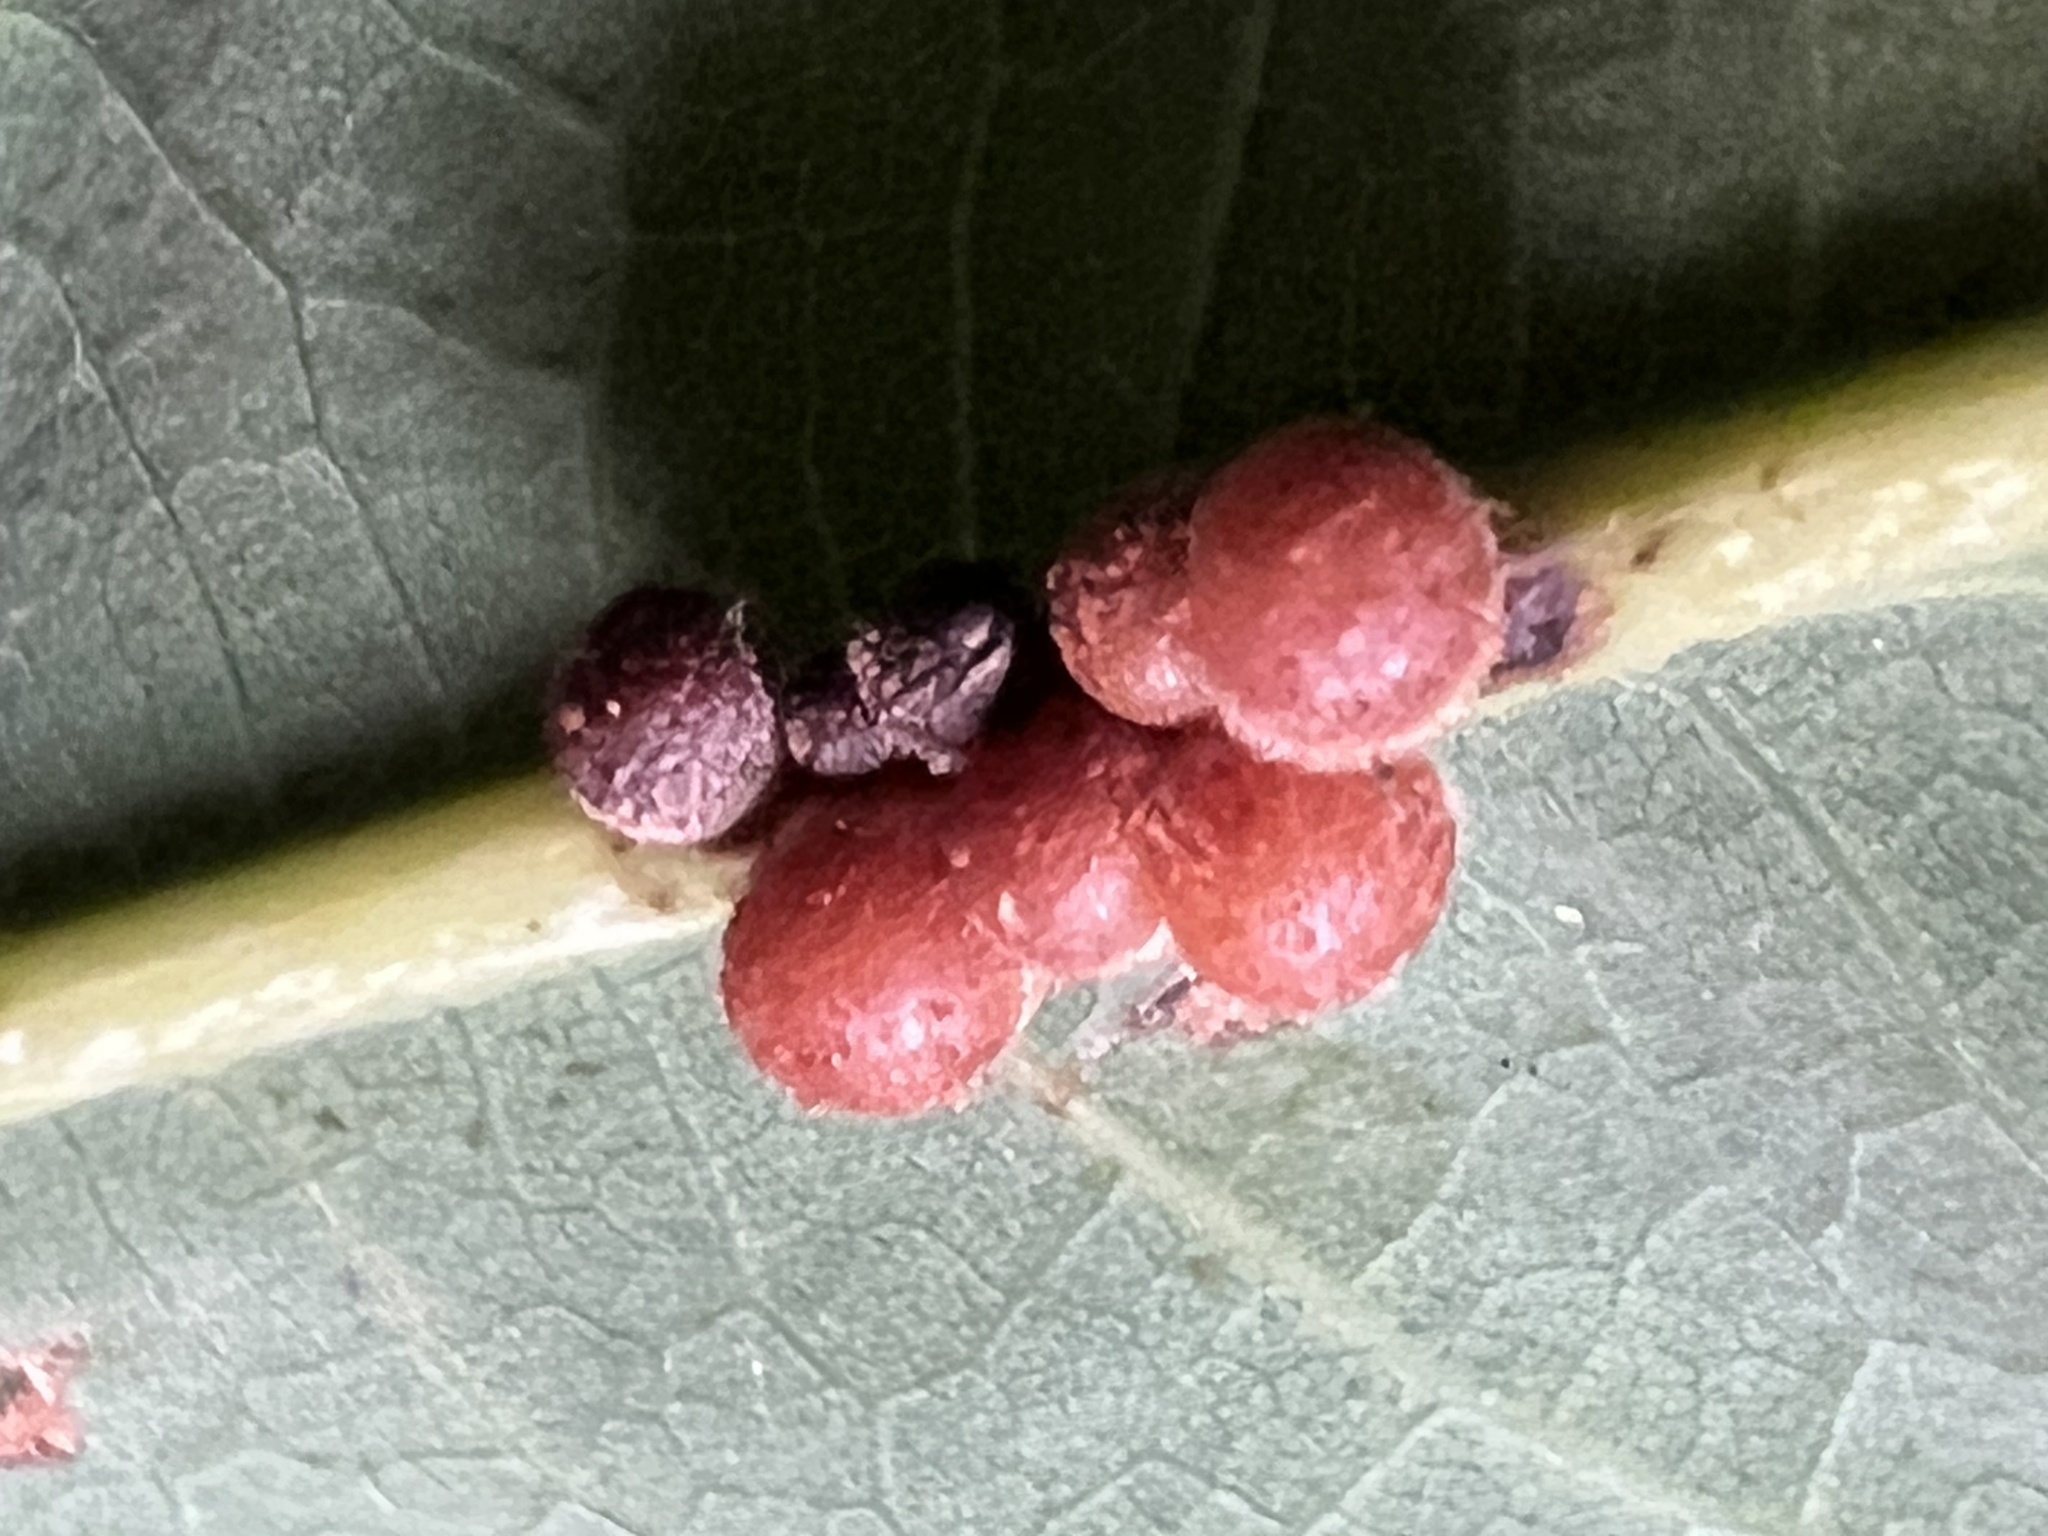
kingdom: Animalia
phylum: Arthropoda
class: Insecta
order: Hymenoptera
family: Cynipidae
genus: Andricus
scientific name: Andricus
